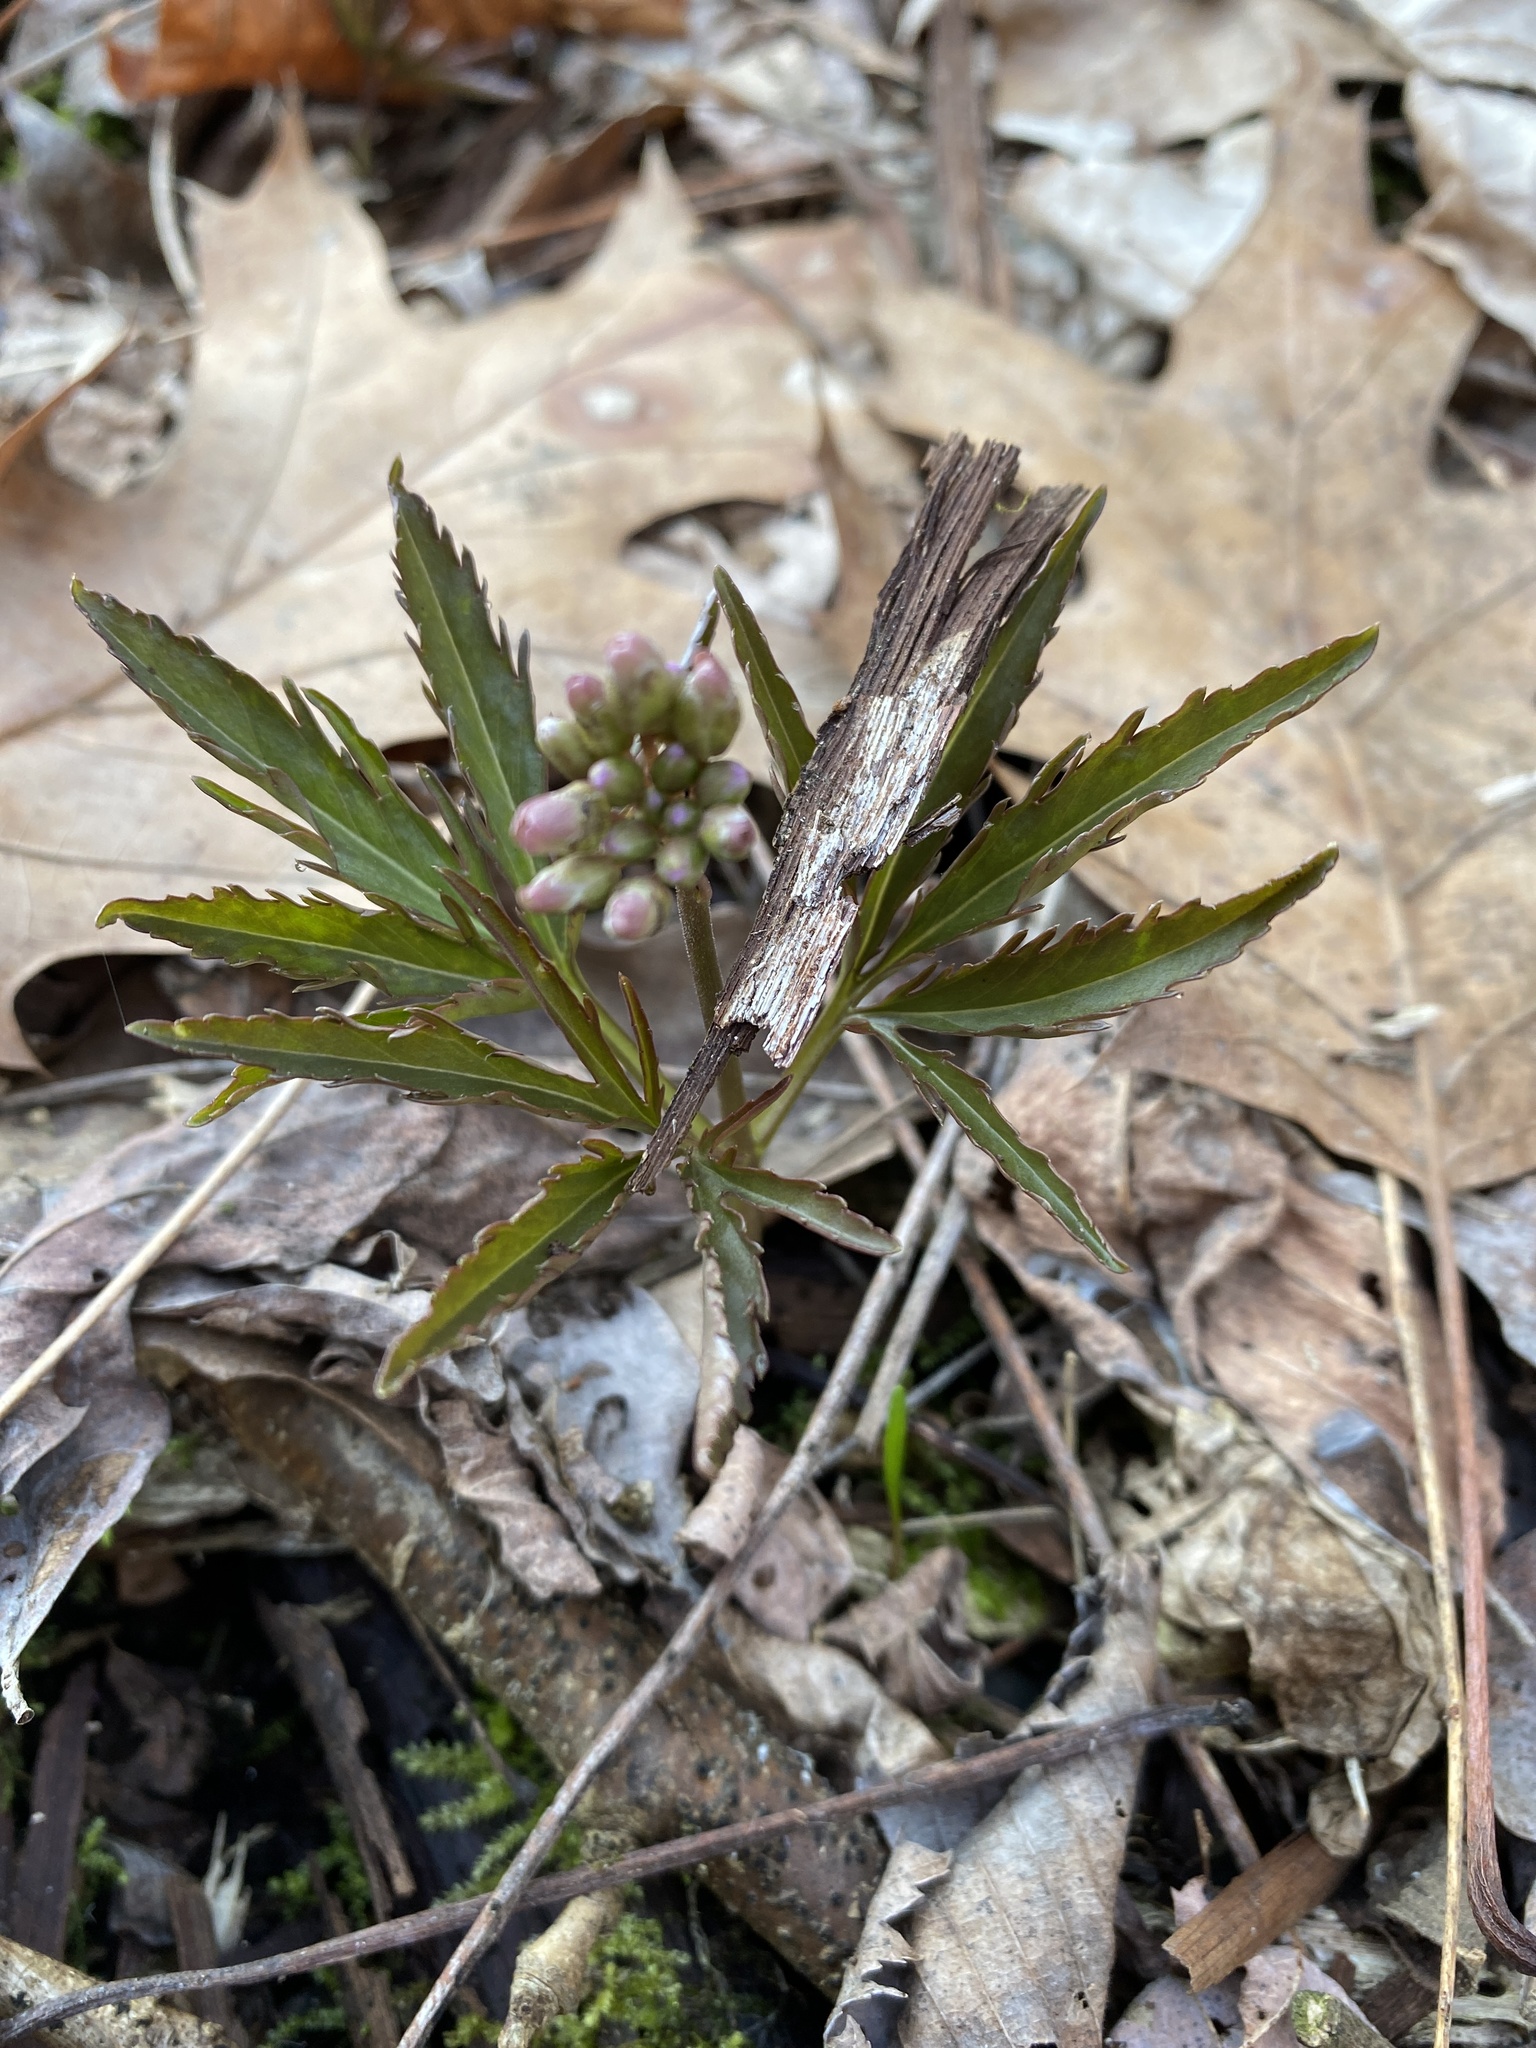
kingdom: Plantae
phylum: Tracheophyta
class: Magnoliopsida
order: Brassicales
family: Brassicaceae
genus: Cardamine
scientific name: Cardamine concatenata
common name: Cut-leaf toothcup
